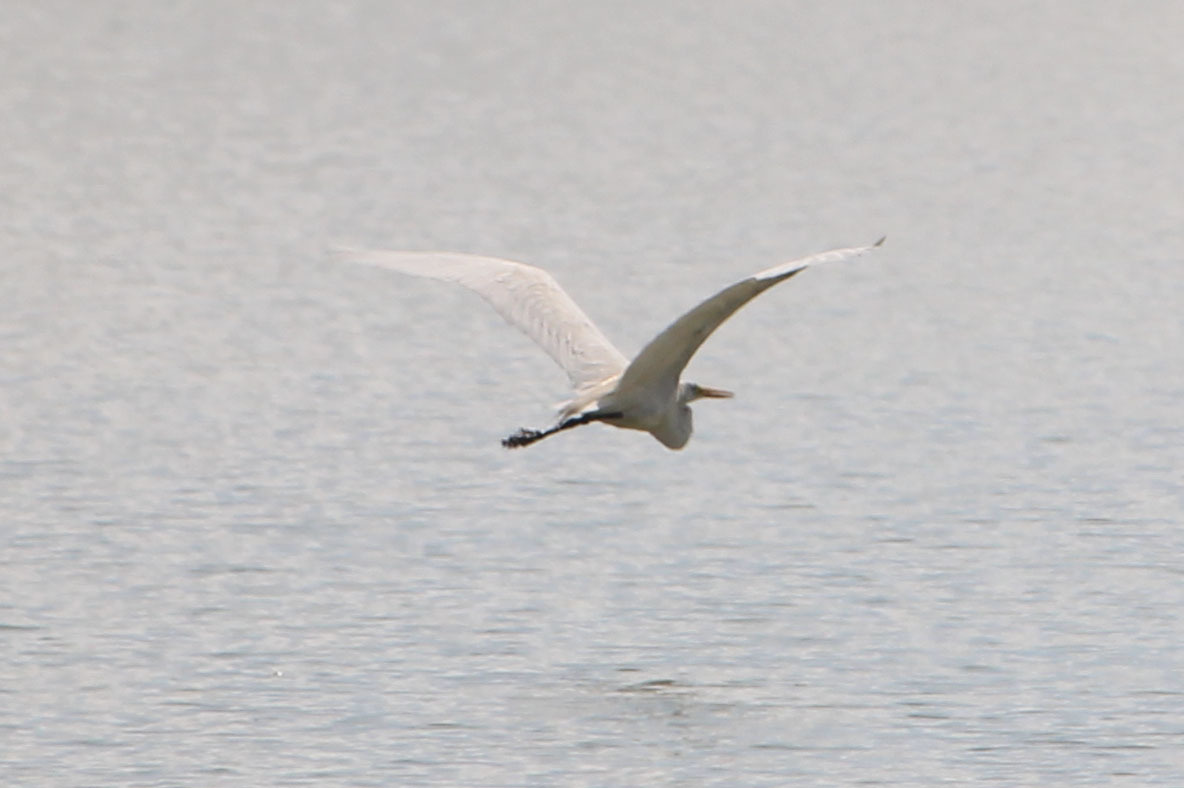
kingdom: Animalia
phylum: Chordata
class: Aves
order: Pelecaniformes
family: Ardeidae
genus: Ardea
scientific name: Ardea alba
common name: Great egret
